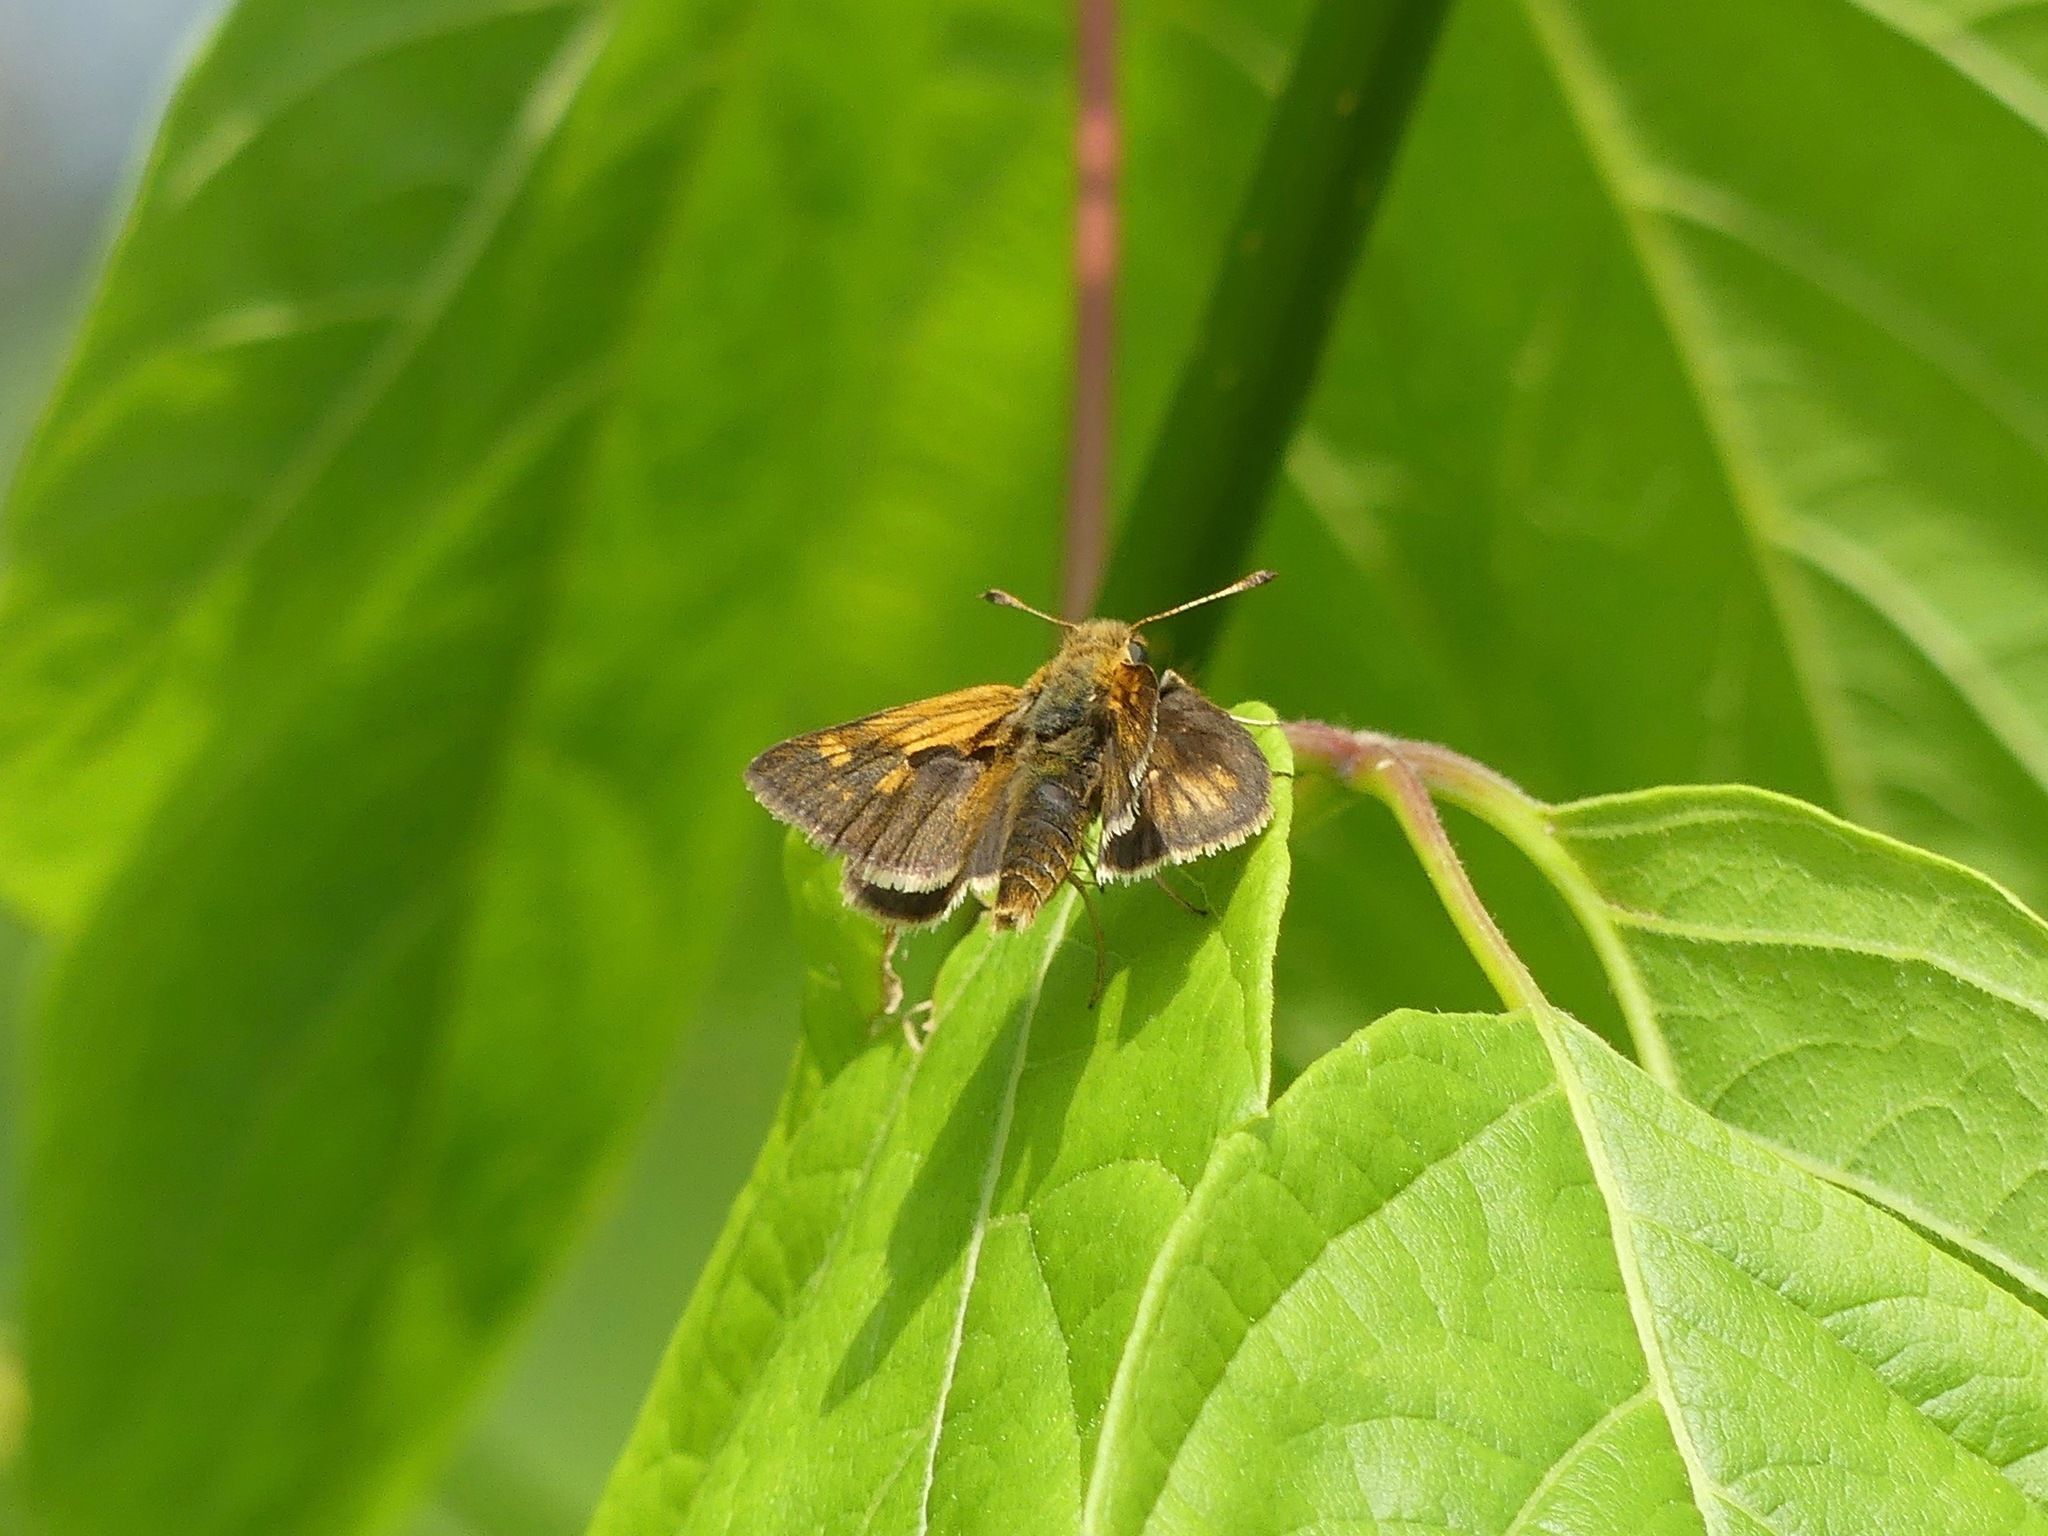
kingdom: Animalia
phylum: Arthropoda
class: Insecta
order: Lepidoptera
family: Hesperiidae
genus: Polites
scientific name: Polites coras
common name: Peck's skipper
